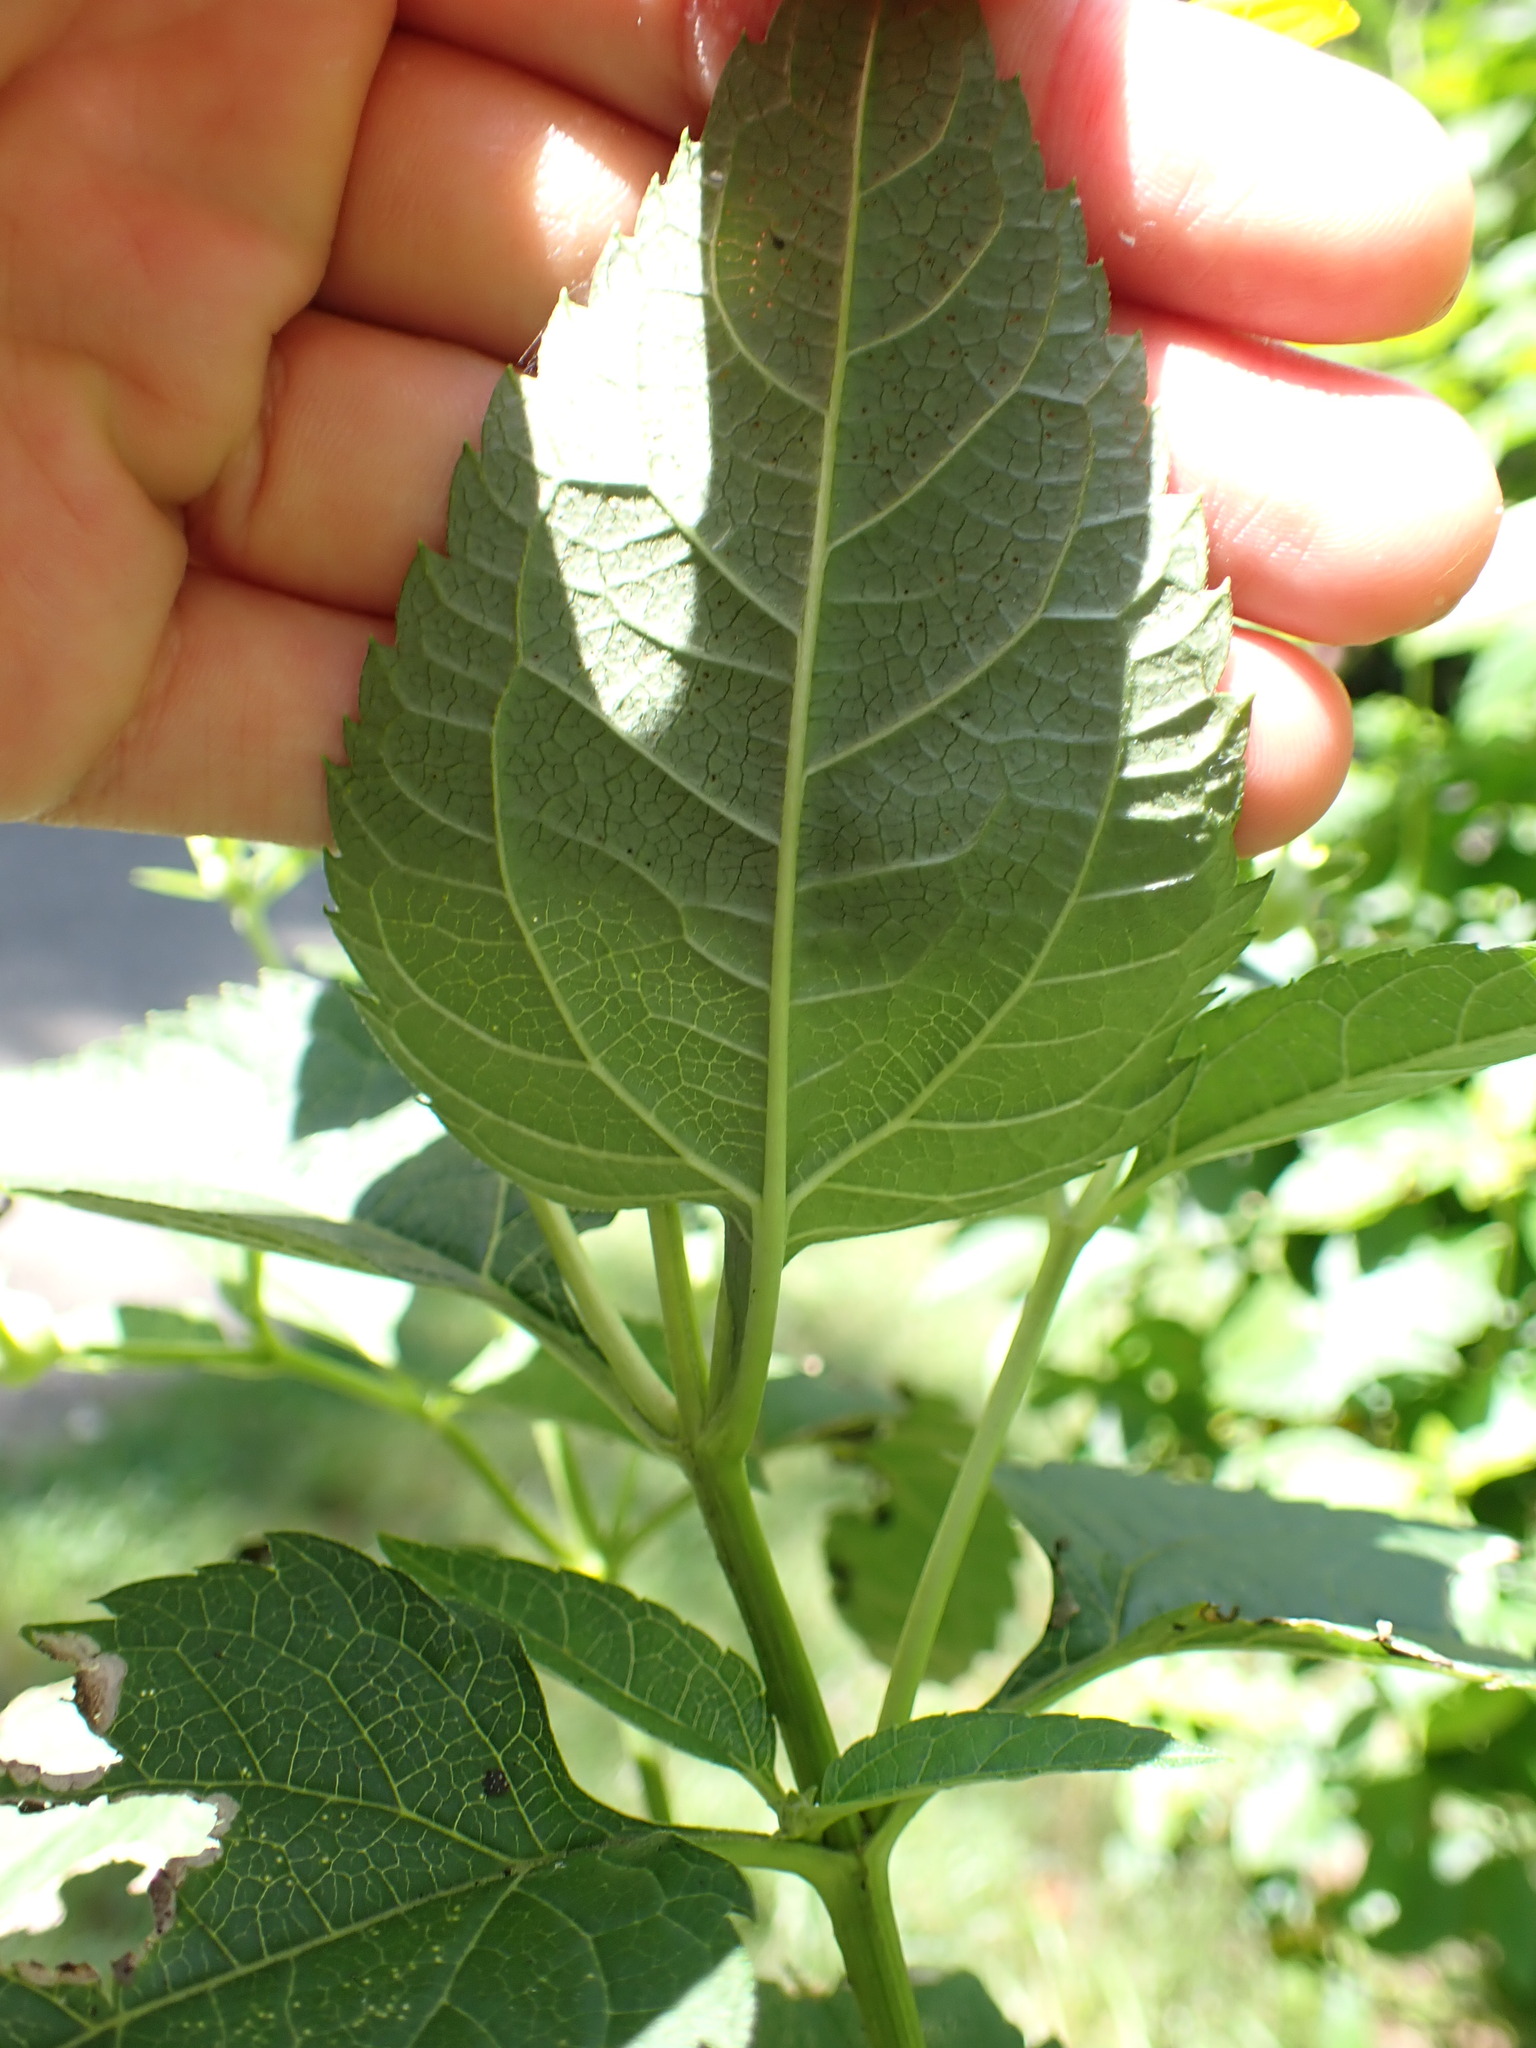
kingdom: Plantae
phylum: Tracheophyta
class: Magnoliopsida
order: Asterales
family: Asteraceae
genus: Heliopsis
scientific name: Heliopsis helianthoides
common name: False sunflower
